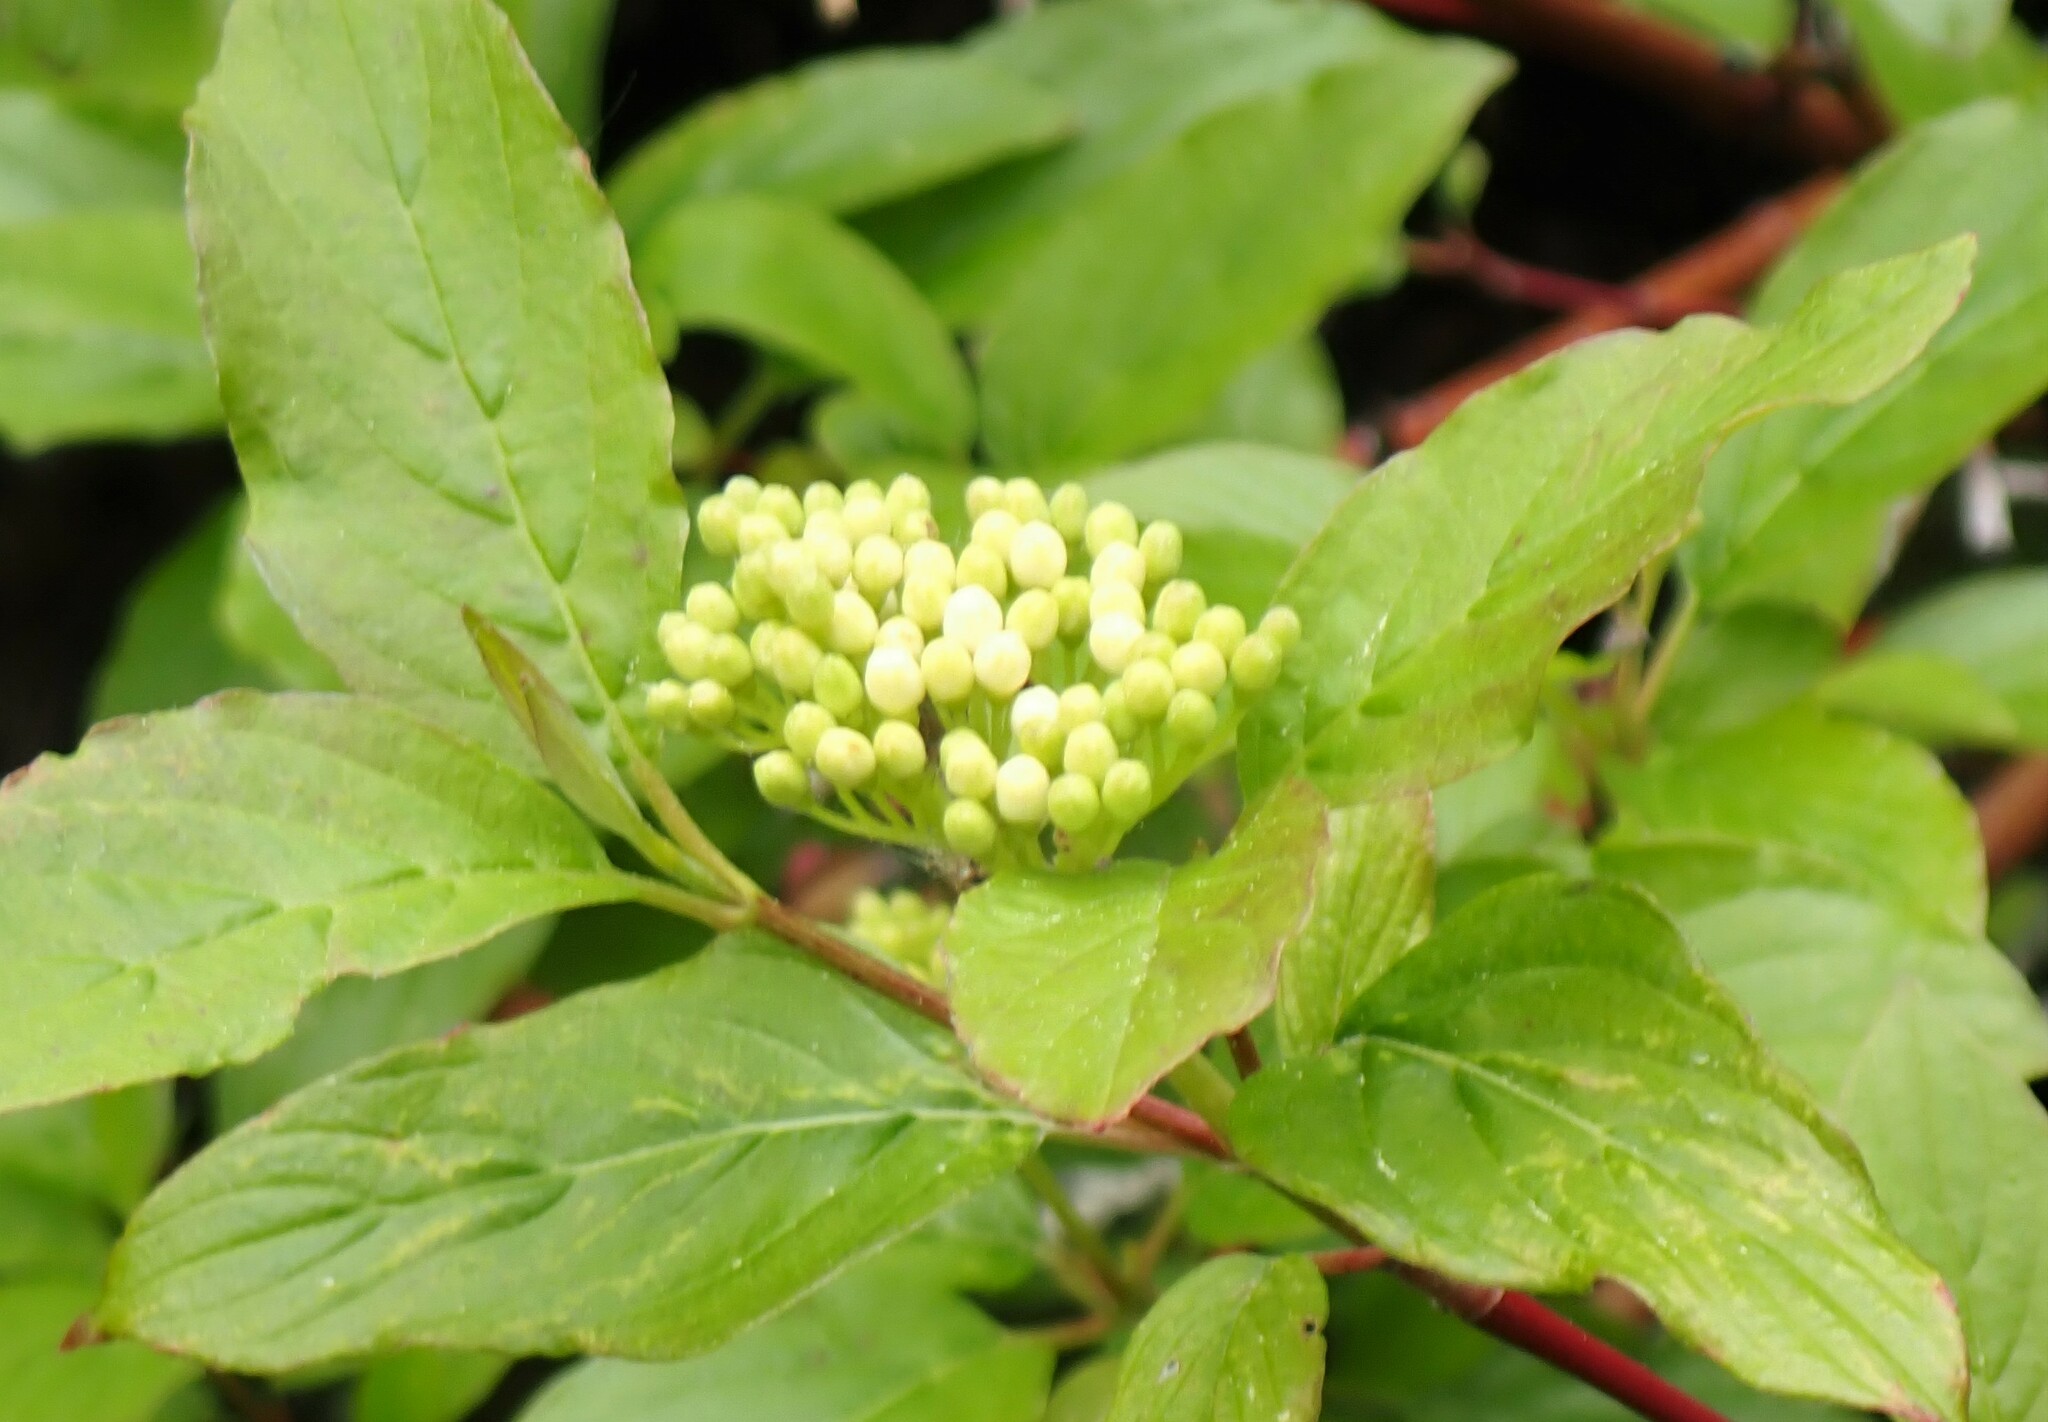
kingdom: Plantae
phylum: Tracheophyta
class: Magnoliopsida
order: Cornales
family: Cornaceae
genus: Cornus
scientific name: Cornus sericea
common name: Red-osier dogwood
